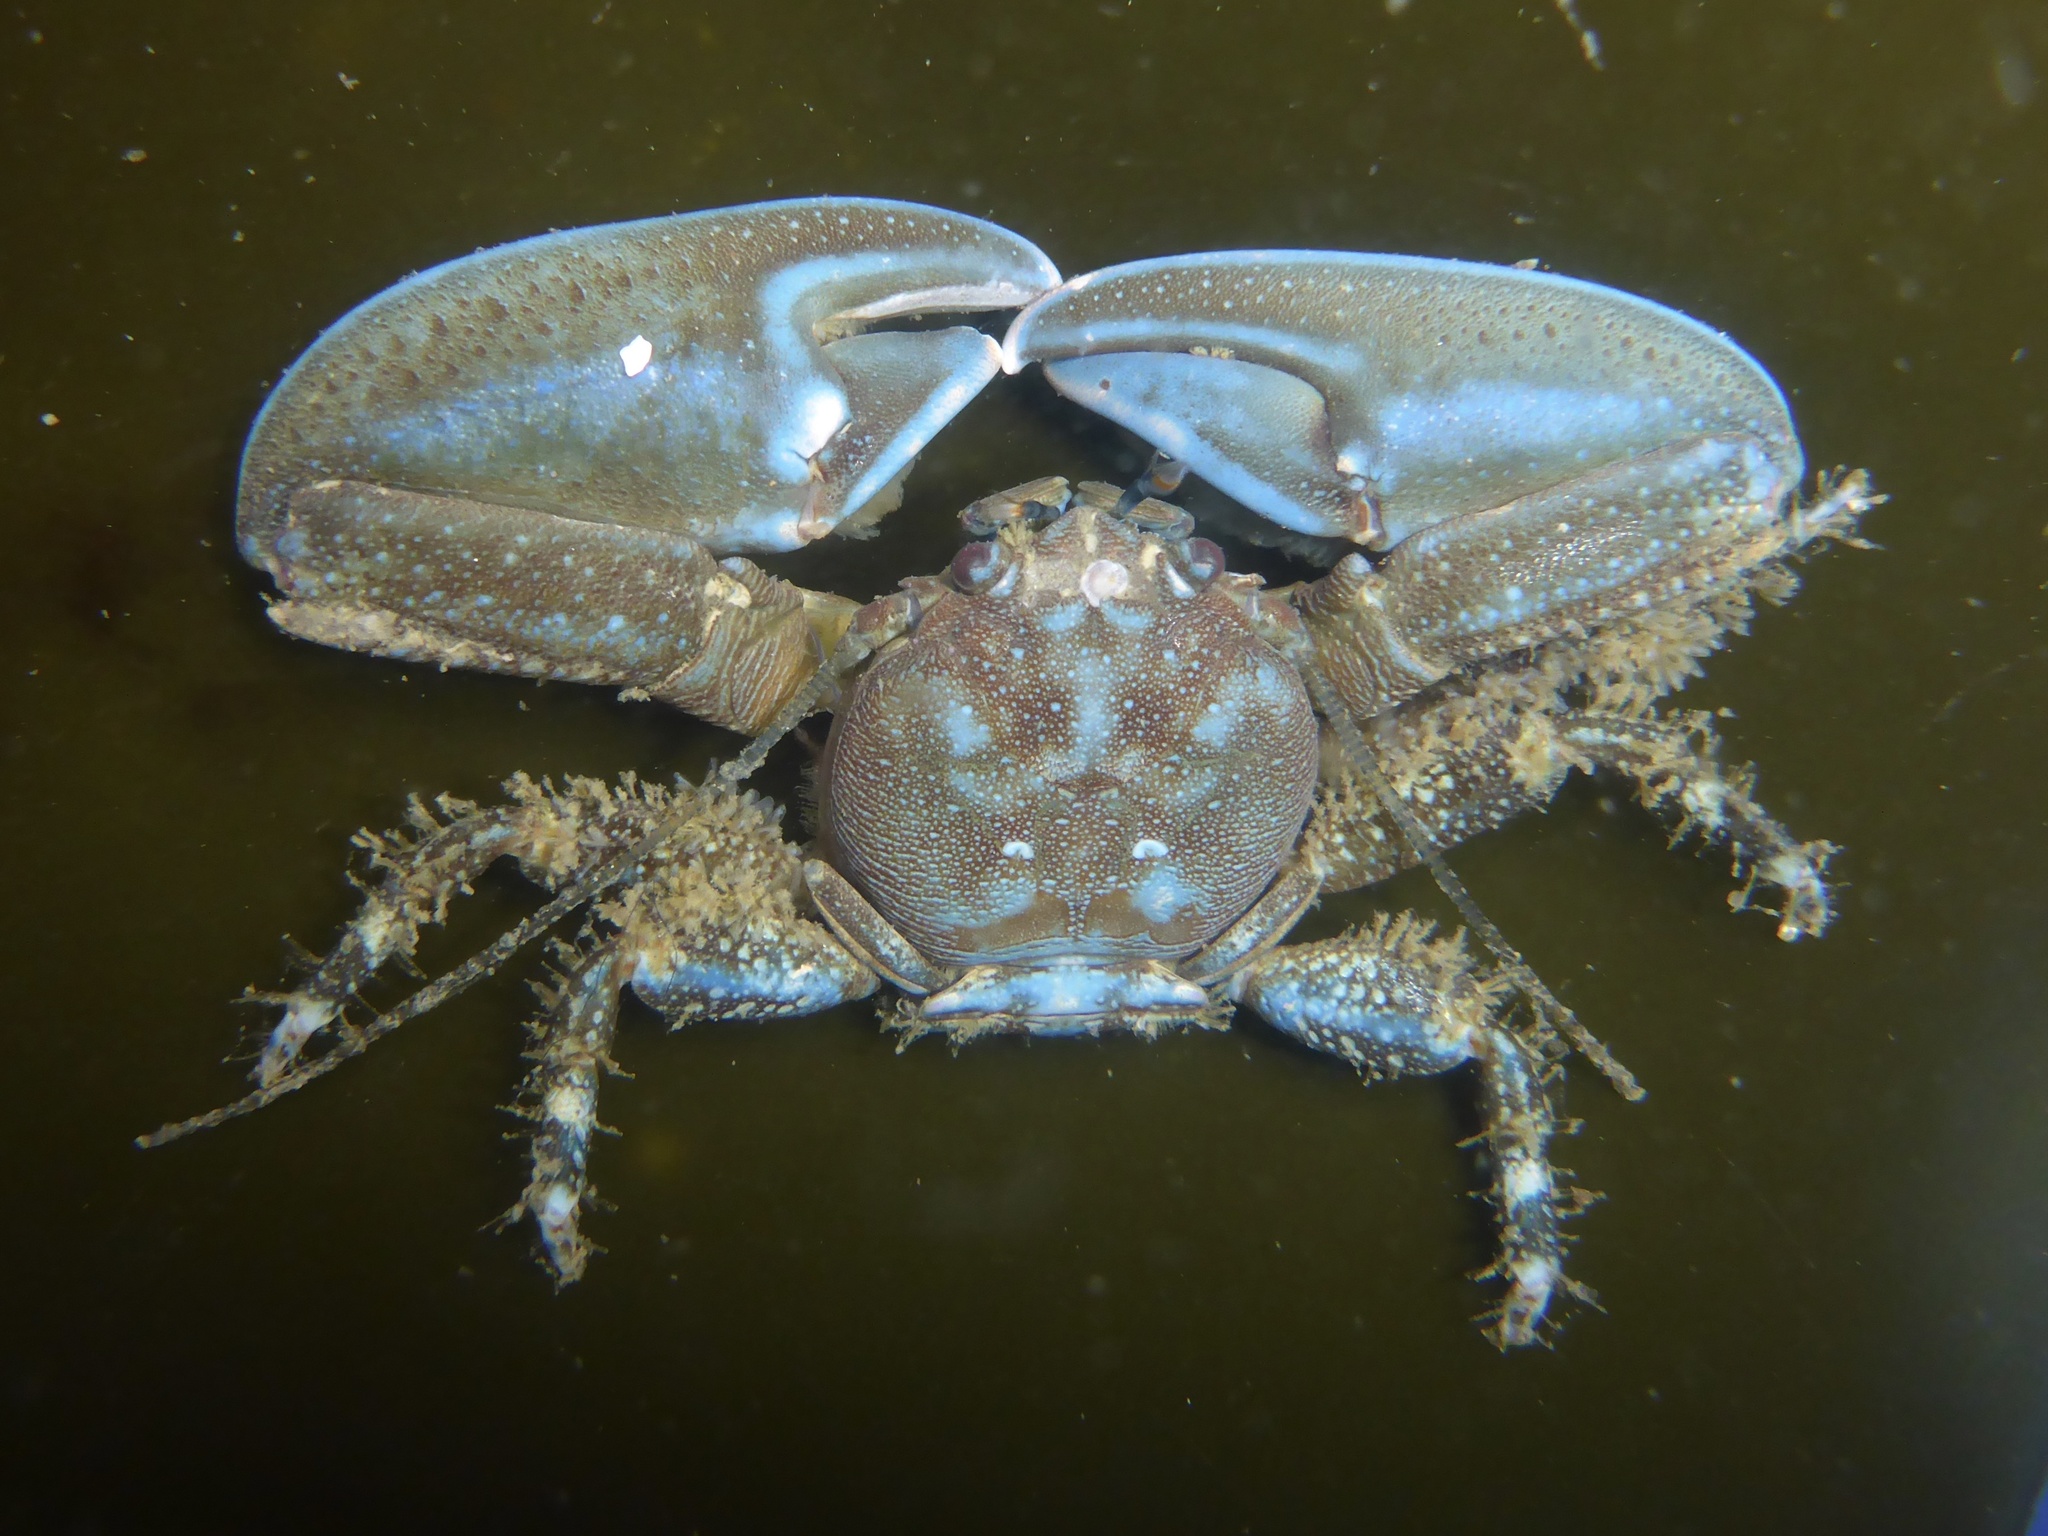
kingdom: Animalia
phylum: Arthropoda
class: Malacostraca
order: Decapoda
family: Porcellanidae
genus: Petrolisthes
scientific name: Petrolisthes eriomerus
